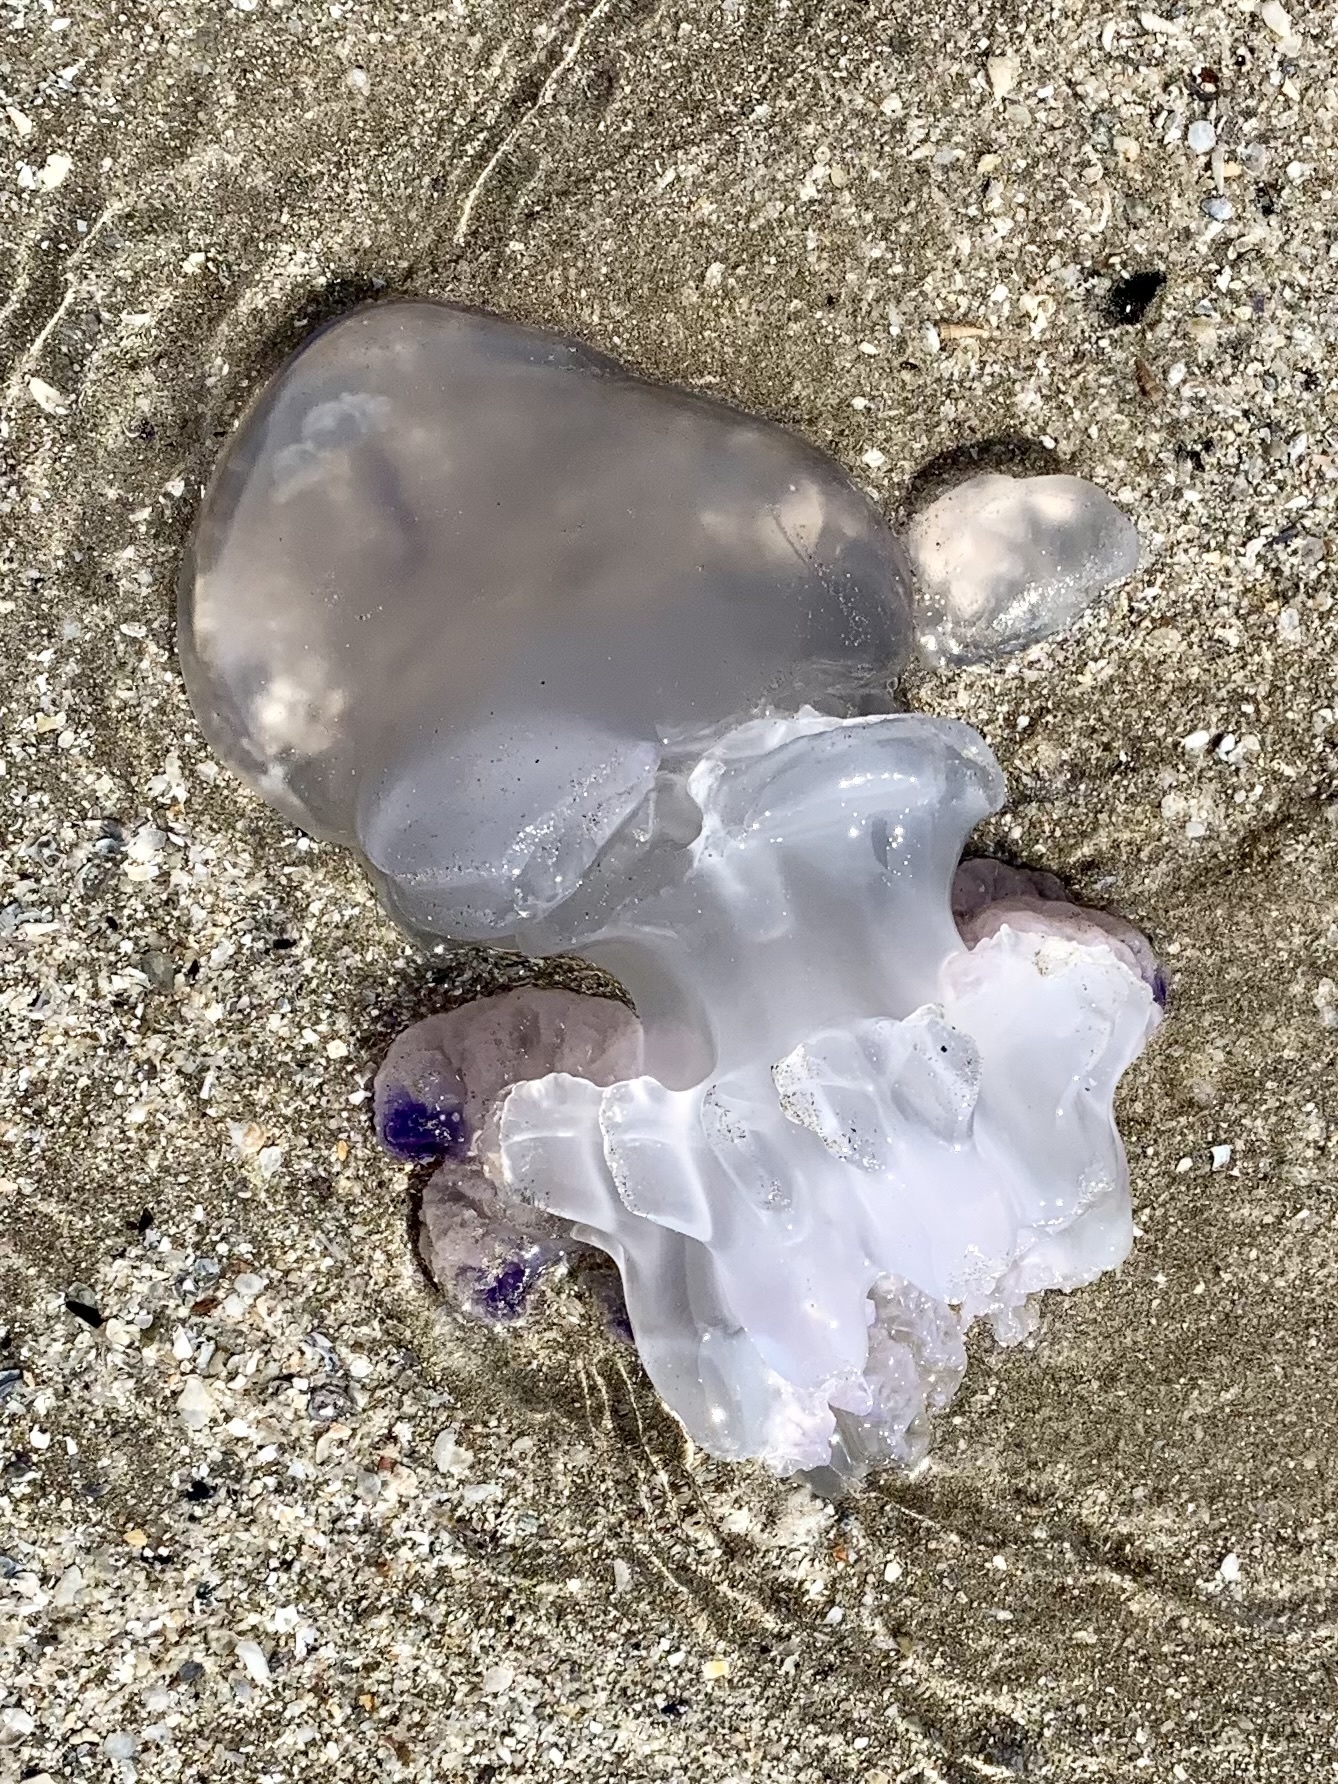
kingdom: Animalia
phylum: Cnidaria
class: Scyphozoa
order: Rhizostomeae
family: Rhizostomatidae
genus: Rhizostoma
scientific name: Rhizostoma pulmo
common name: Barrel jellyfish
